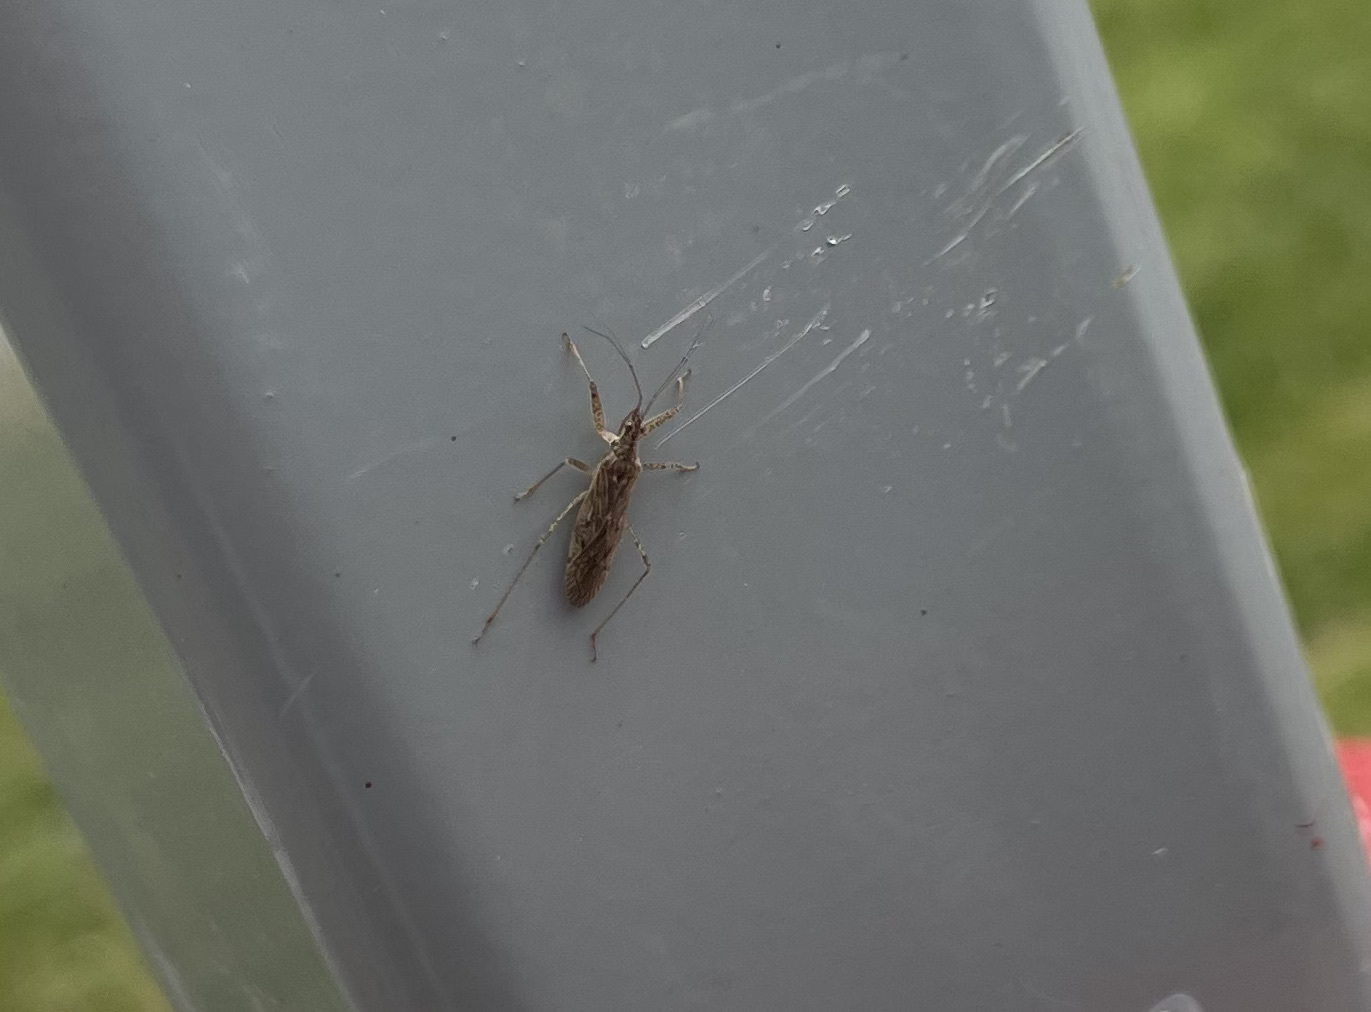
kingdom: Animalia
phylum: Arthropoda
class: Insecta
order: Hemiptera
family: Nabidae
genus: Nabis
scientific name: Nabis roseipennis
